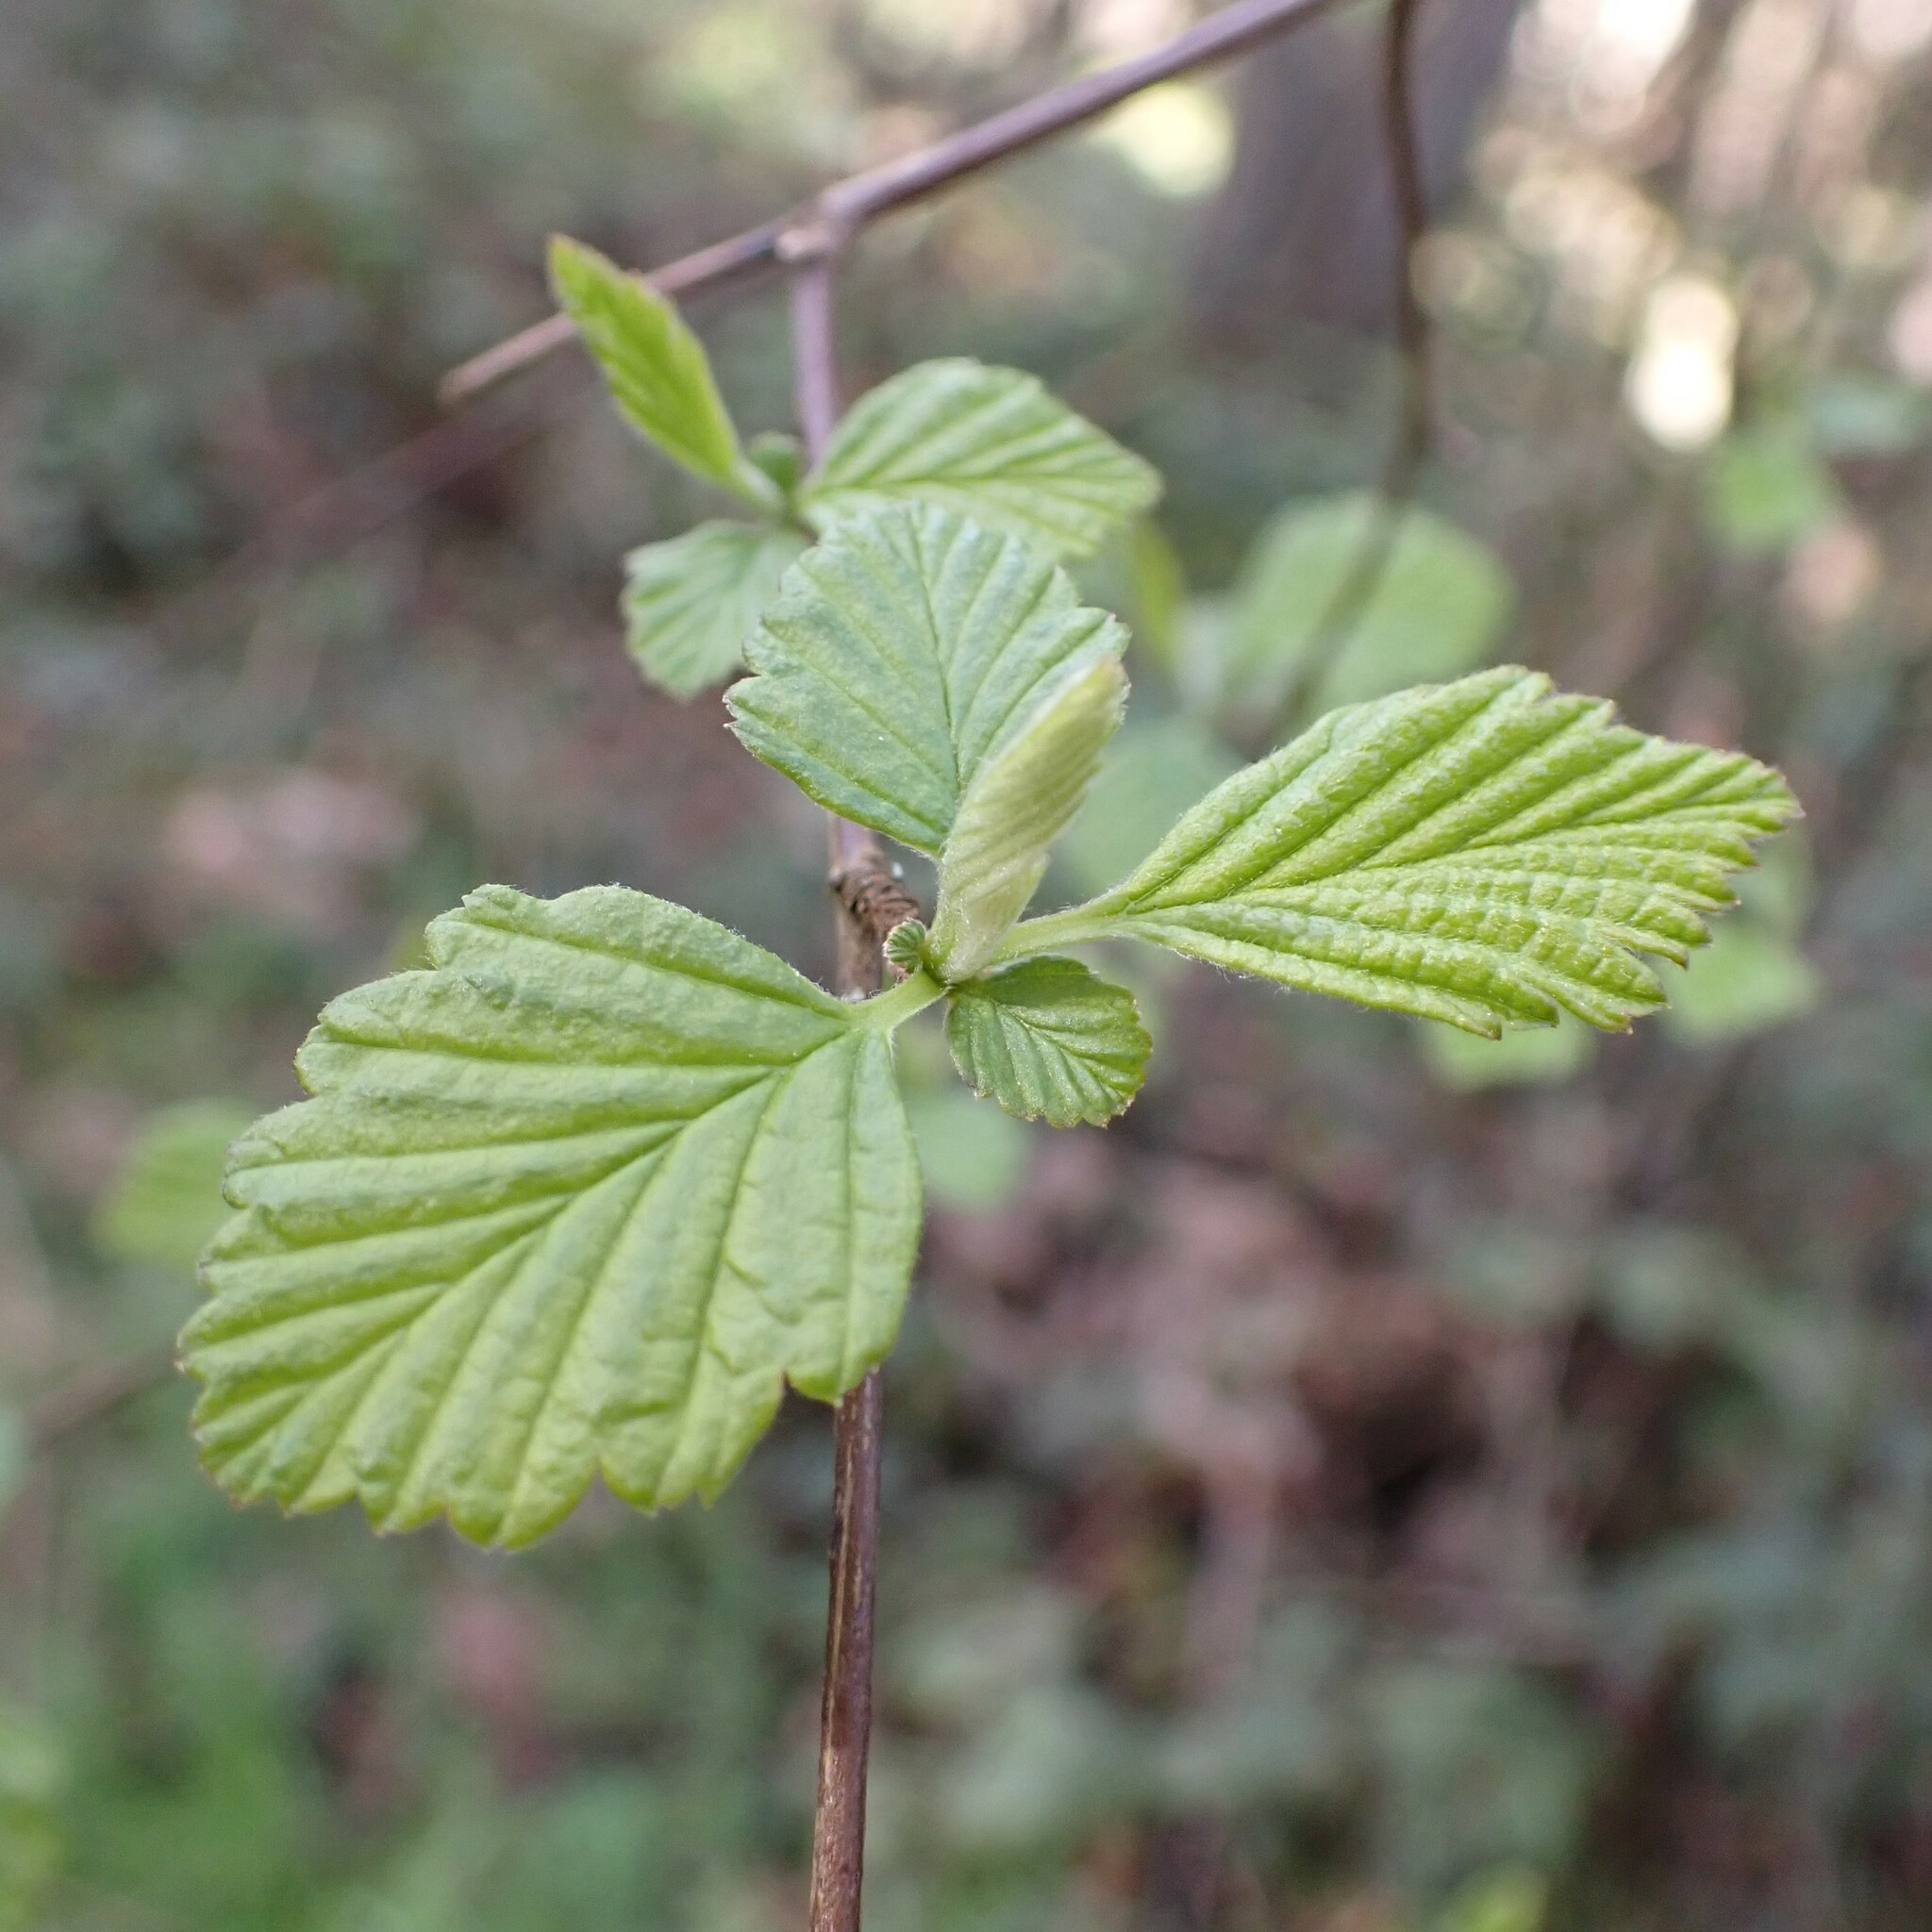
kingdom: Plantae
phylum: Tracheophyta
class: Magnoliopsida
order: Rosales
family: Rosaceae
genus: Holodiscus
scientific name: Holodiscus discolor
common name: Oceanspray
